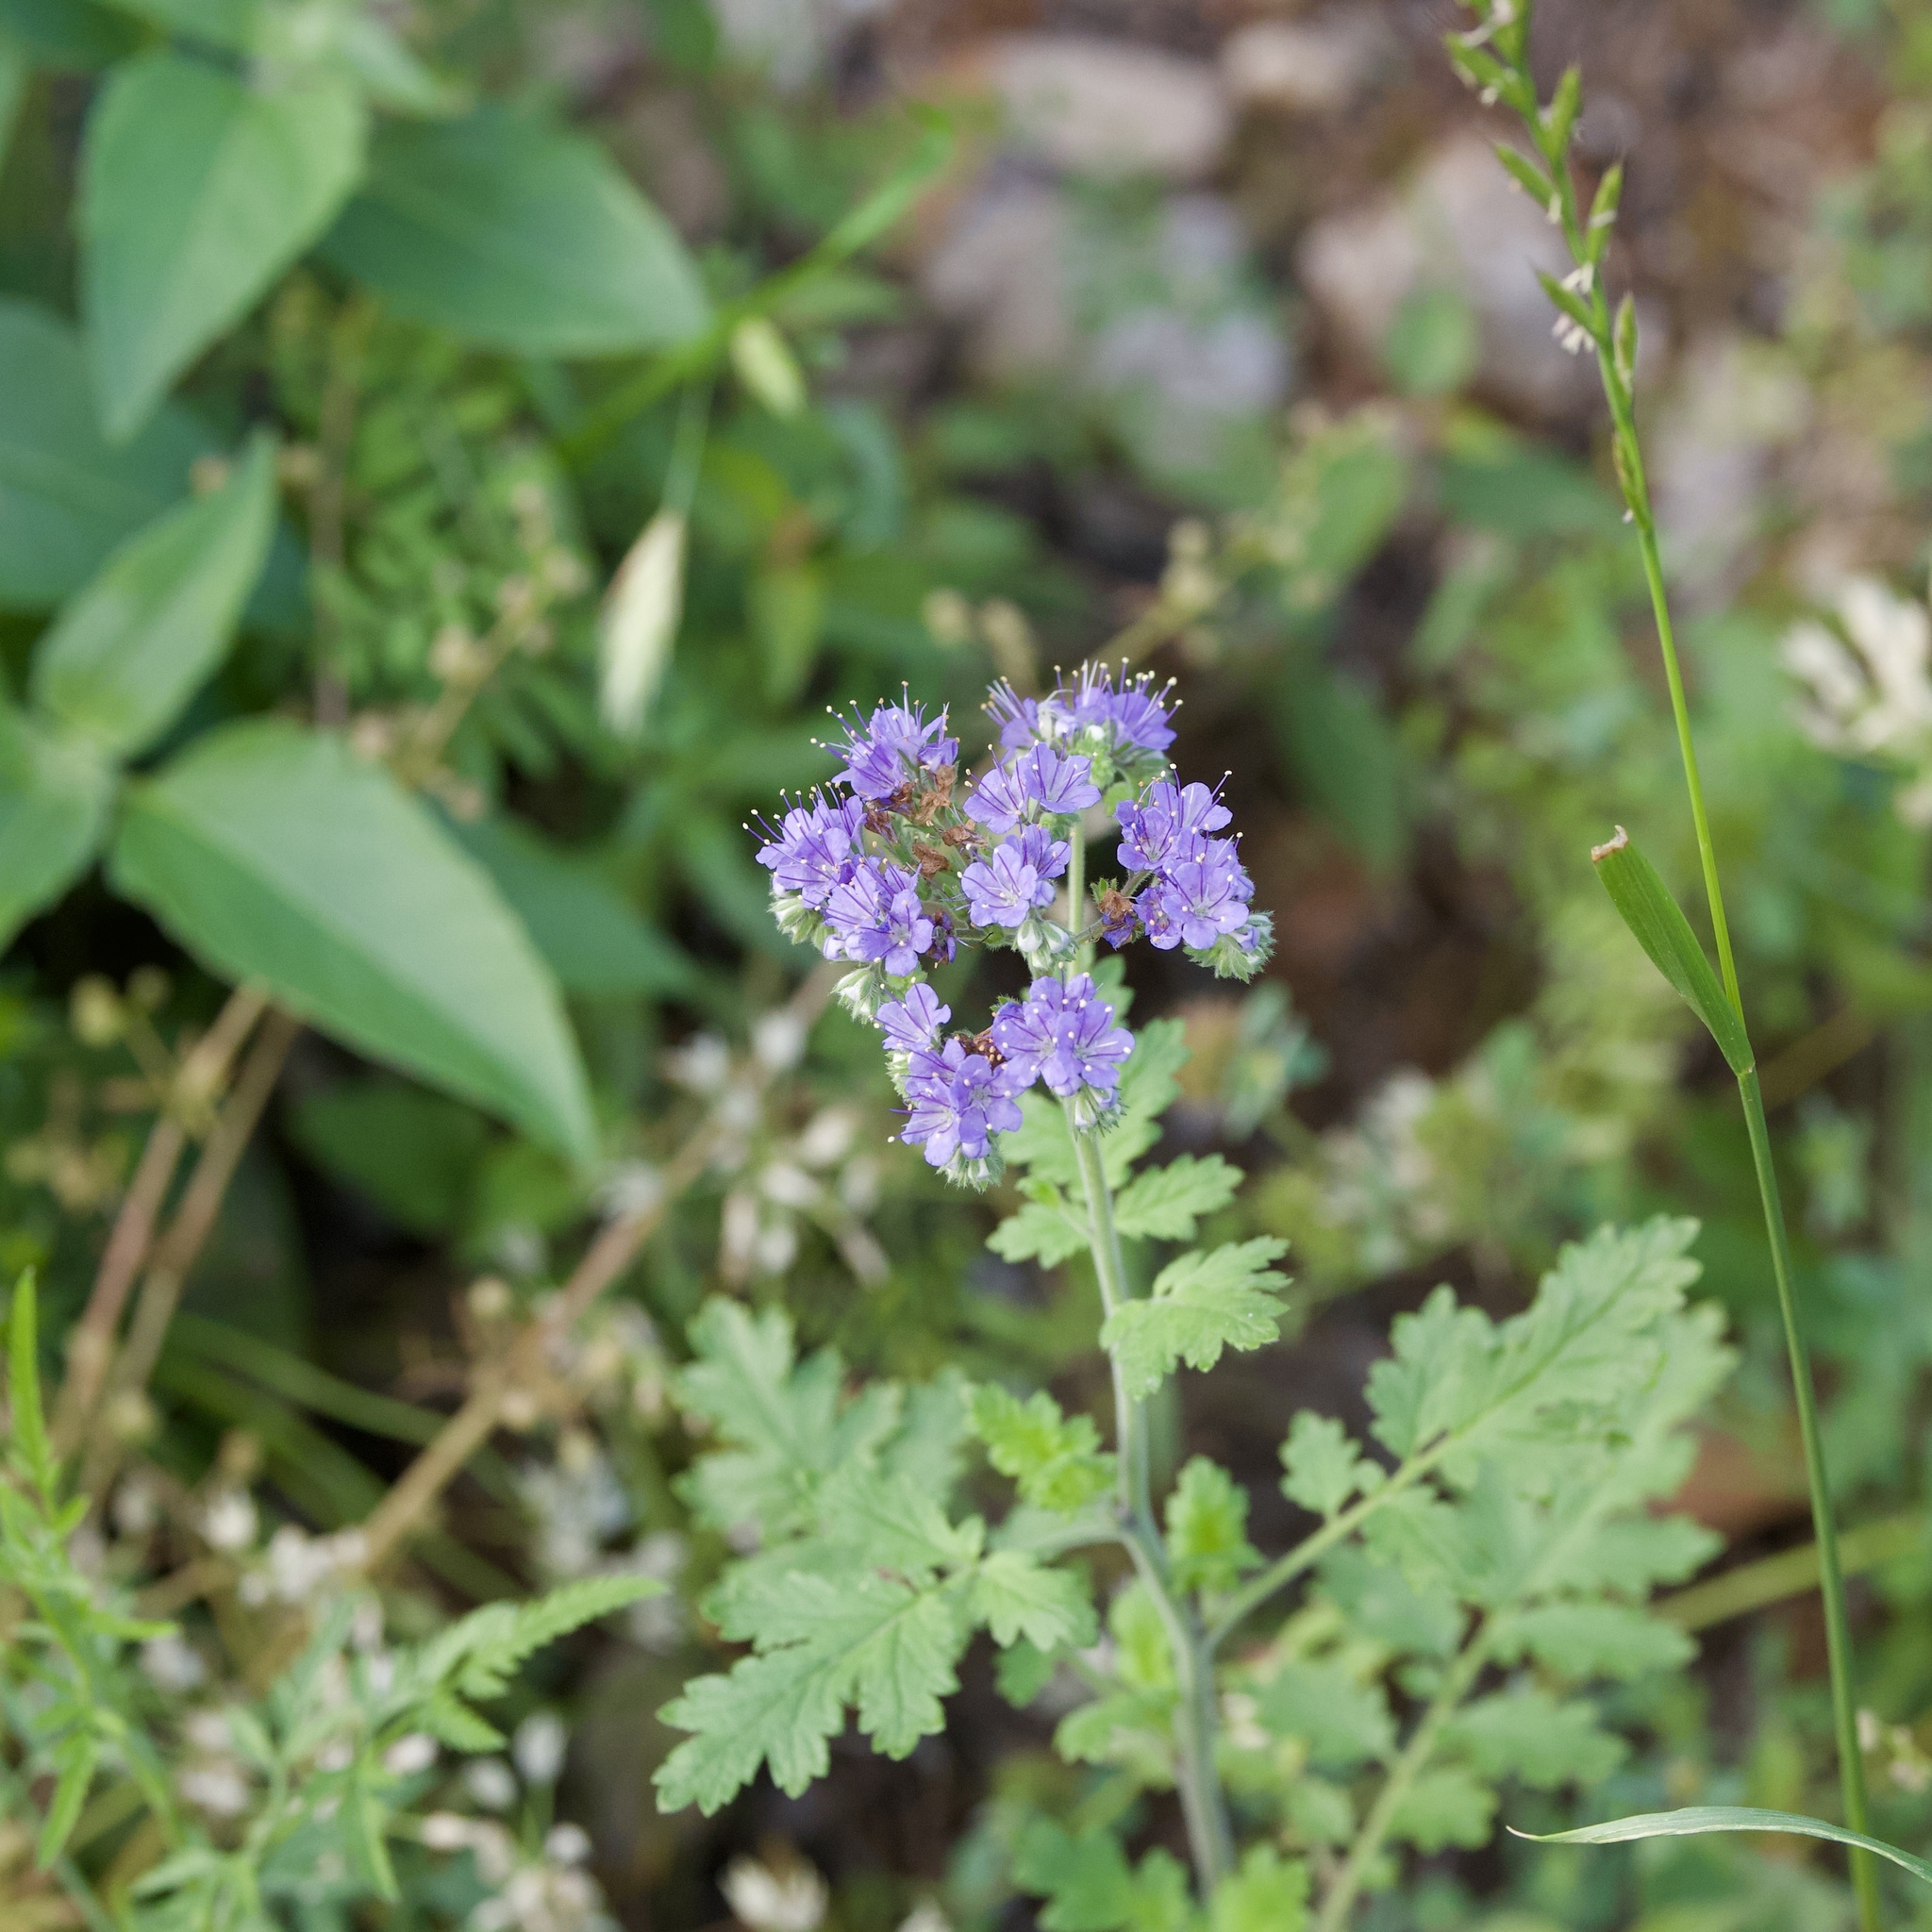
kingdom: Plantae
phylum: Tracheophyta
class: Magnoliopsida
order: Boraginales
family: Hydrophyllaceae
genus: Phacelia
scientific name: Phacelia congesta
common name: Blue curls
